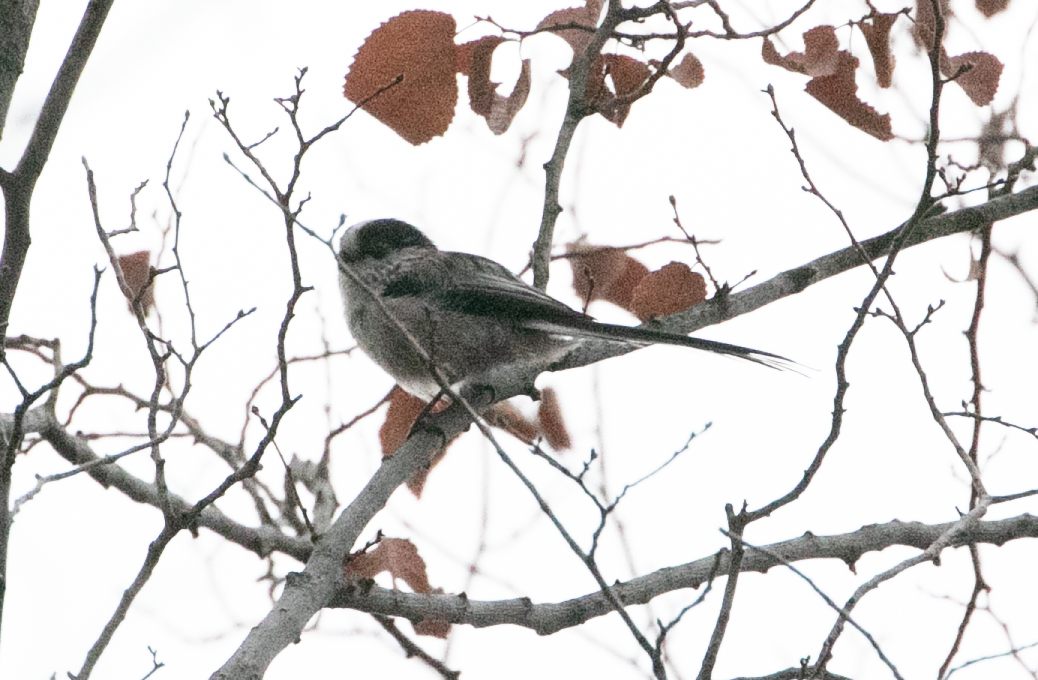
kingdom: Animalia
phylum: Chordata
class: Aves
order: Passeriformes
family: Aegithalidae
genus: Aegithalos
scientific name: Aegithalos caudatus
